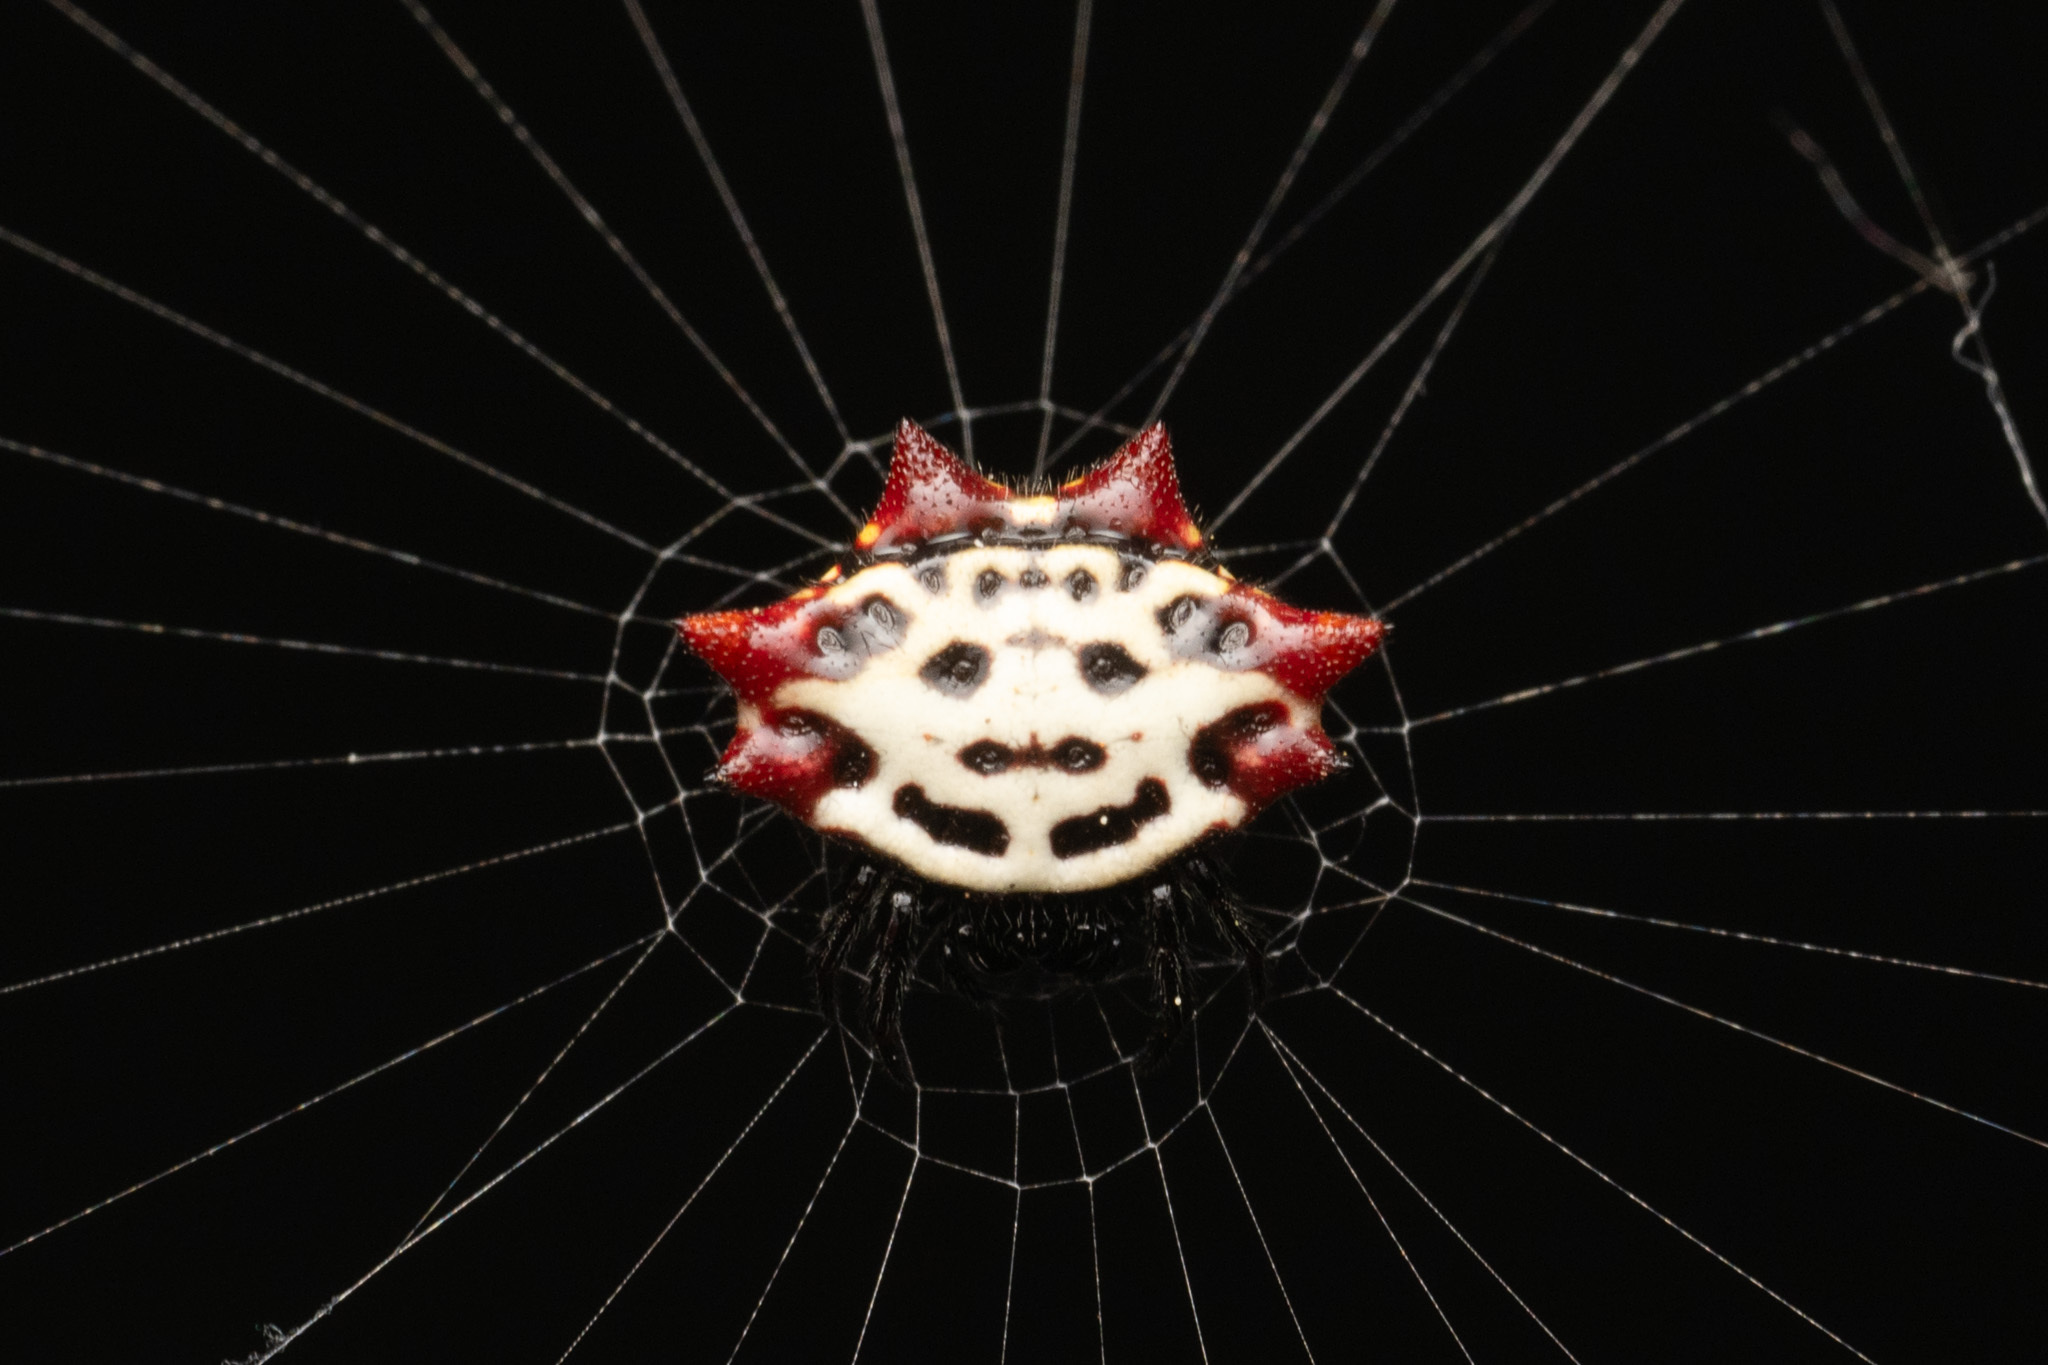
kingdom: Animalia
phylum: Arthropoda
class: Arachnida
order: Araneae
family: Araneidae
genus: Gasteracantha
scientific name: Gasteracantha cancriformis
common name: Orb weavers
